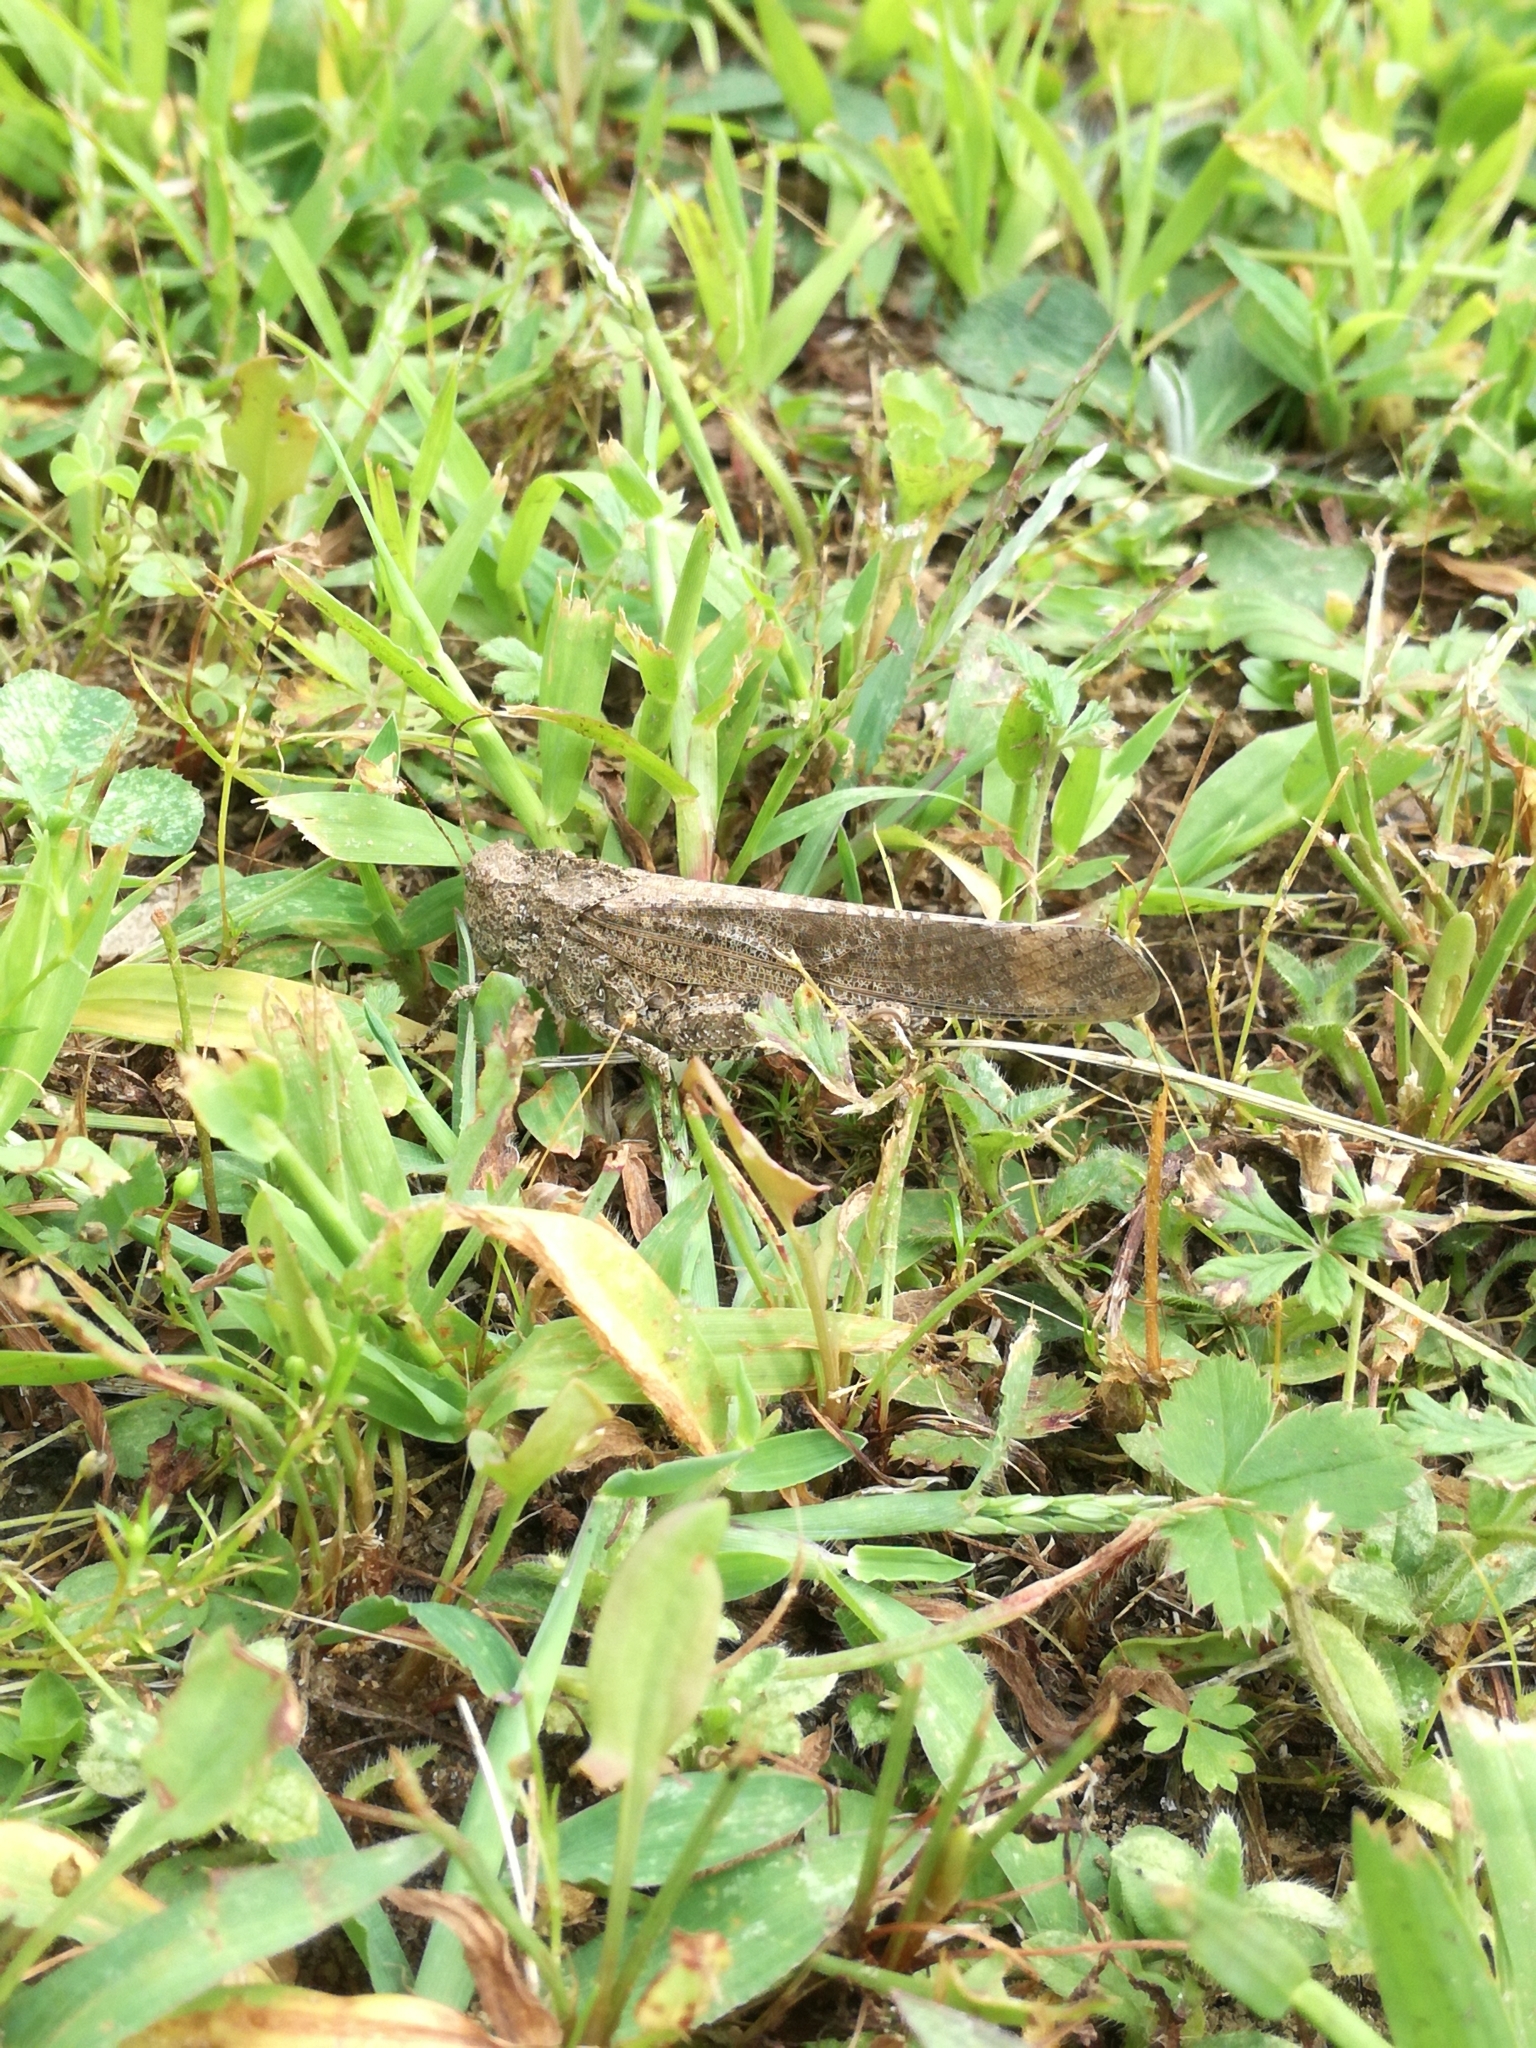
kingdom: Animalia
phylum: Arthropoda
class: Insecta
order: Orthoptera
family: Acrididae
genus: Dissosteira
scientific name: Dissosteira carolina
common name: Carolina grasshopper
